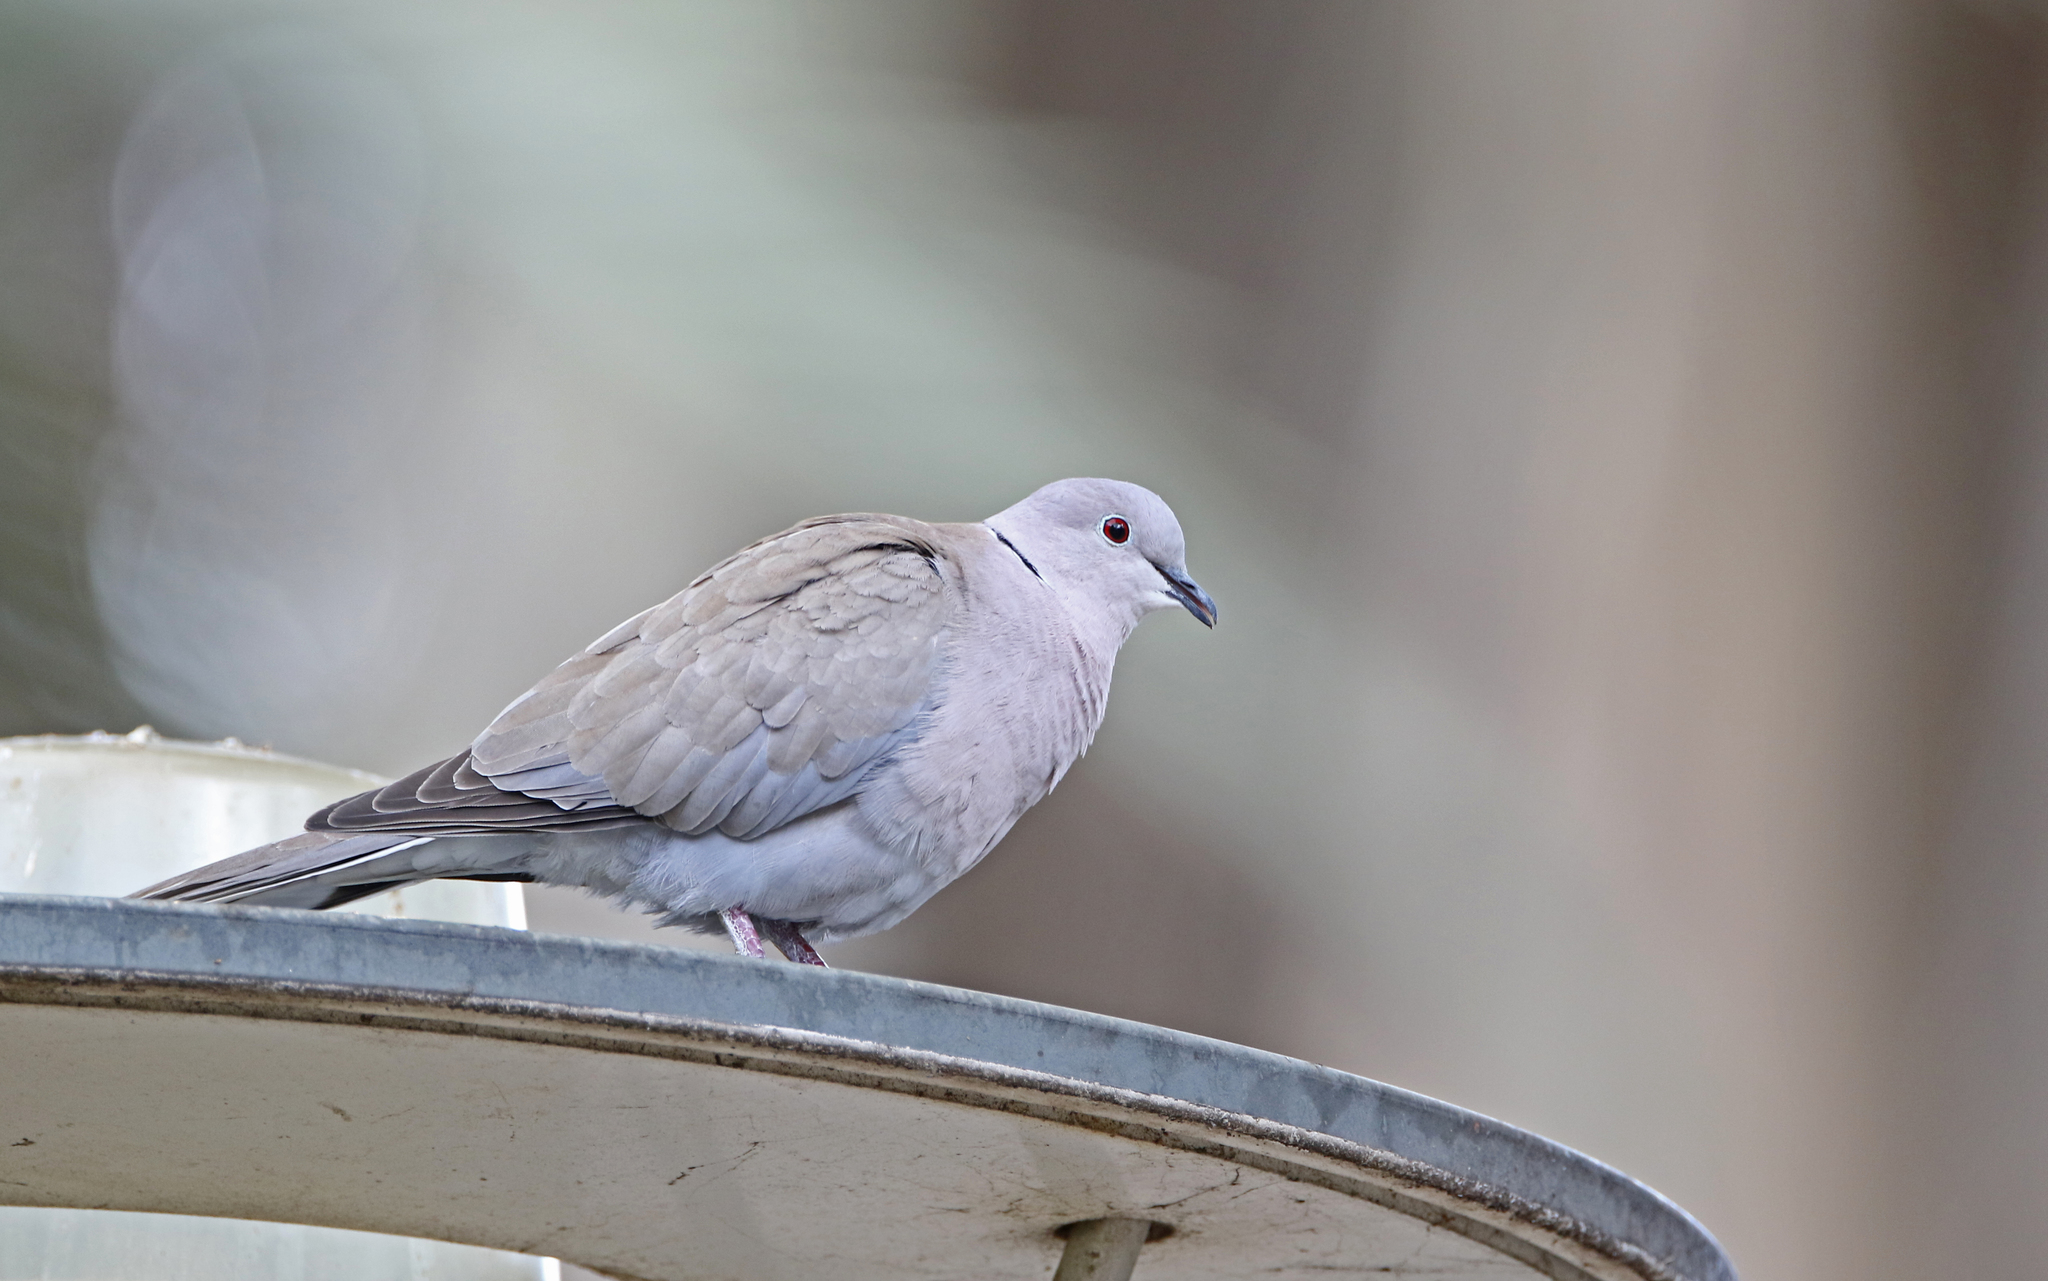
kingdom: Animalia
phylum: Chordata
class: Aves
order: Columbiformes
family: Columbidae
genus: Streptopelia
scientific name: Streptopelia decaocto
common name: Eurasian collared dove
